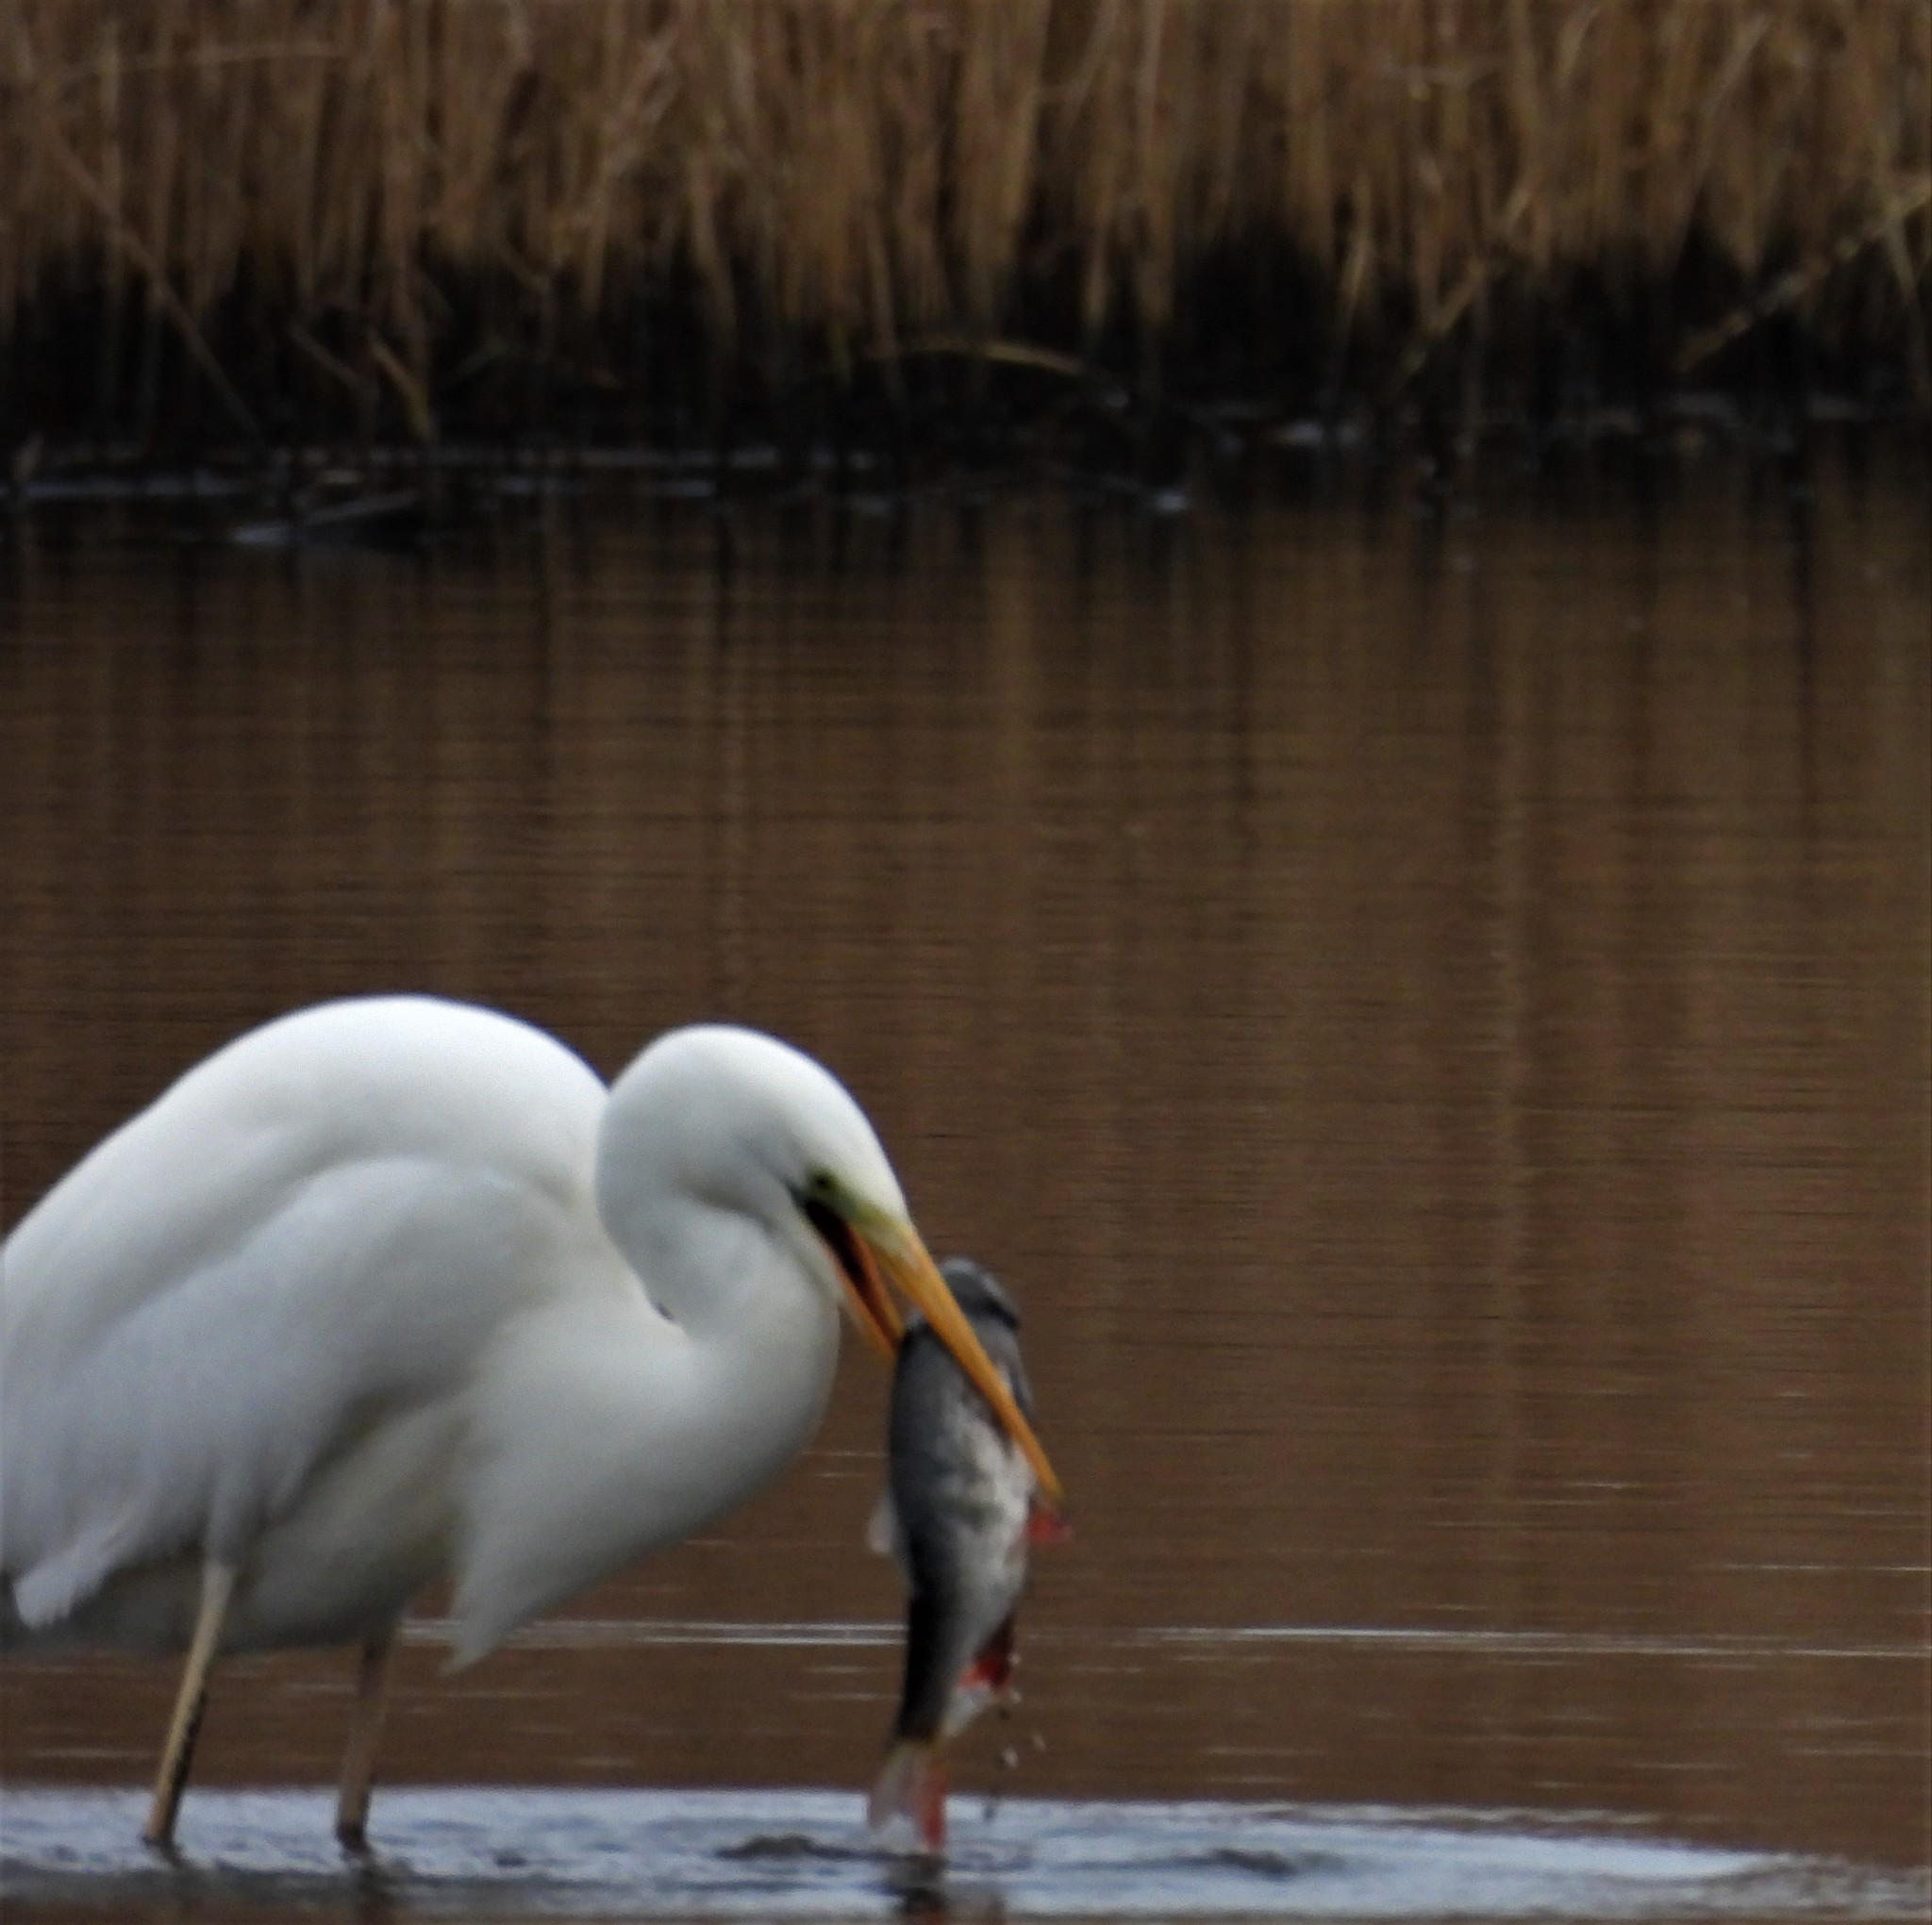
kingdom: Animalia
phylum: Chordata
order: Cypriniformes
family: Cyprinidae
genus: Rutilus
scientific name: Rutilus rutilus
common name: Roach
